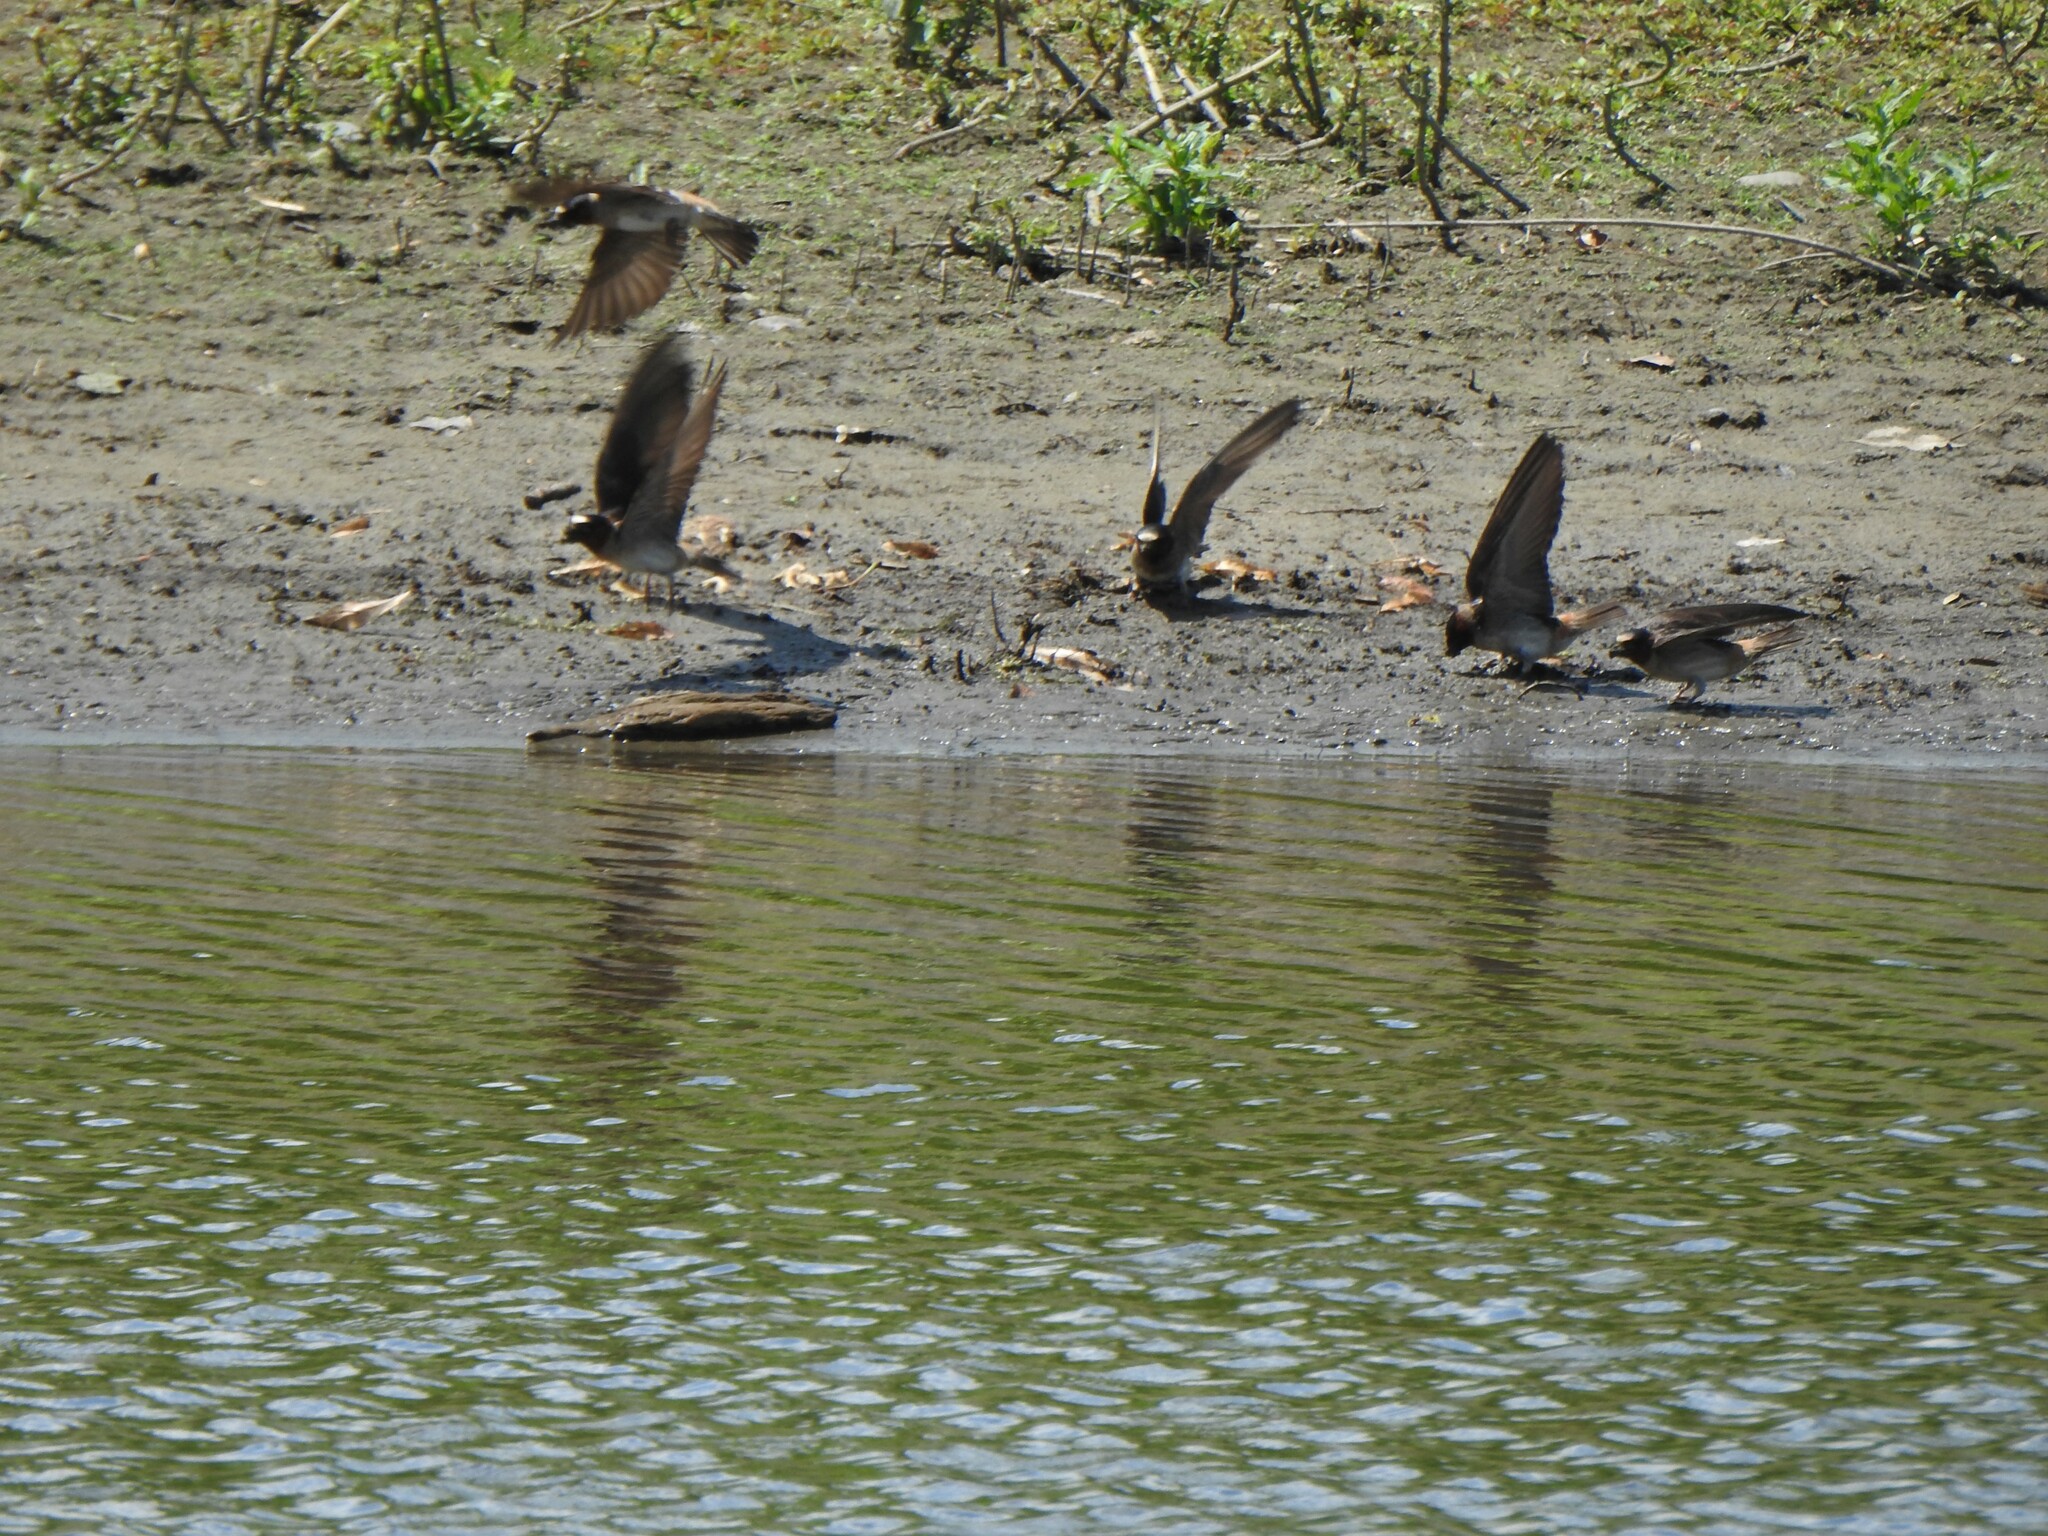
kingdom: Animalia
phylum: Chordata
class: Aves
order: Passeriformes
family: Hirundinidae
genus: Petrochelidon
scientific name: Petrochelidon pyrrhonota
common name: American cliff swallow
